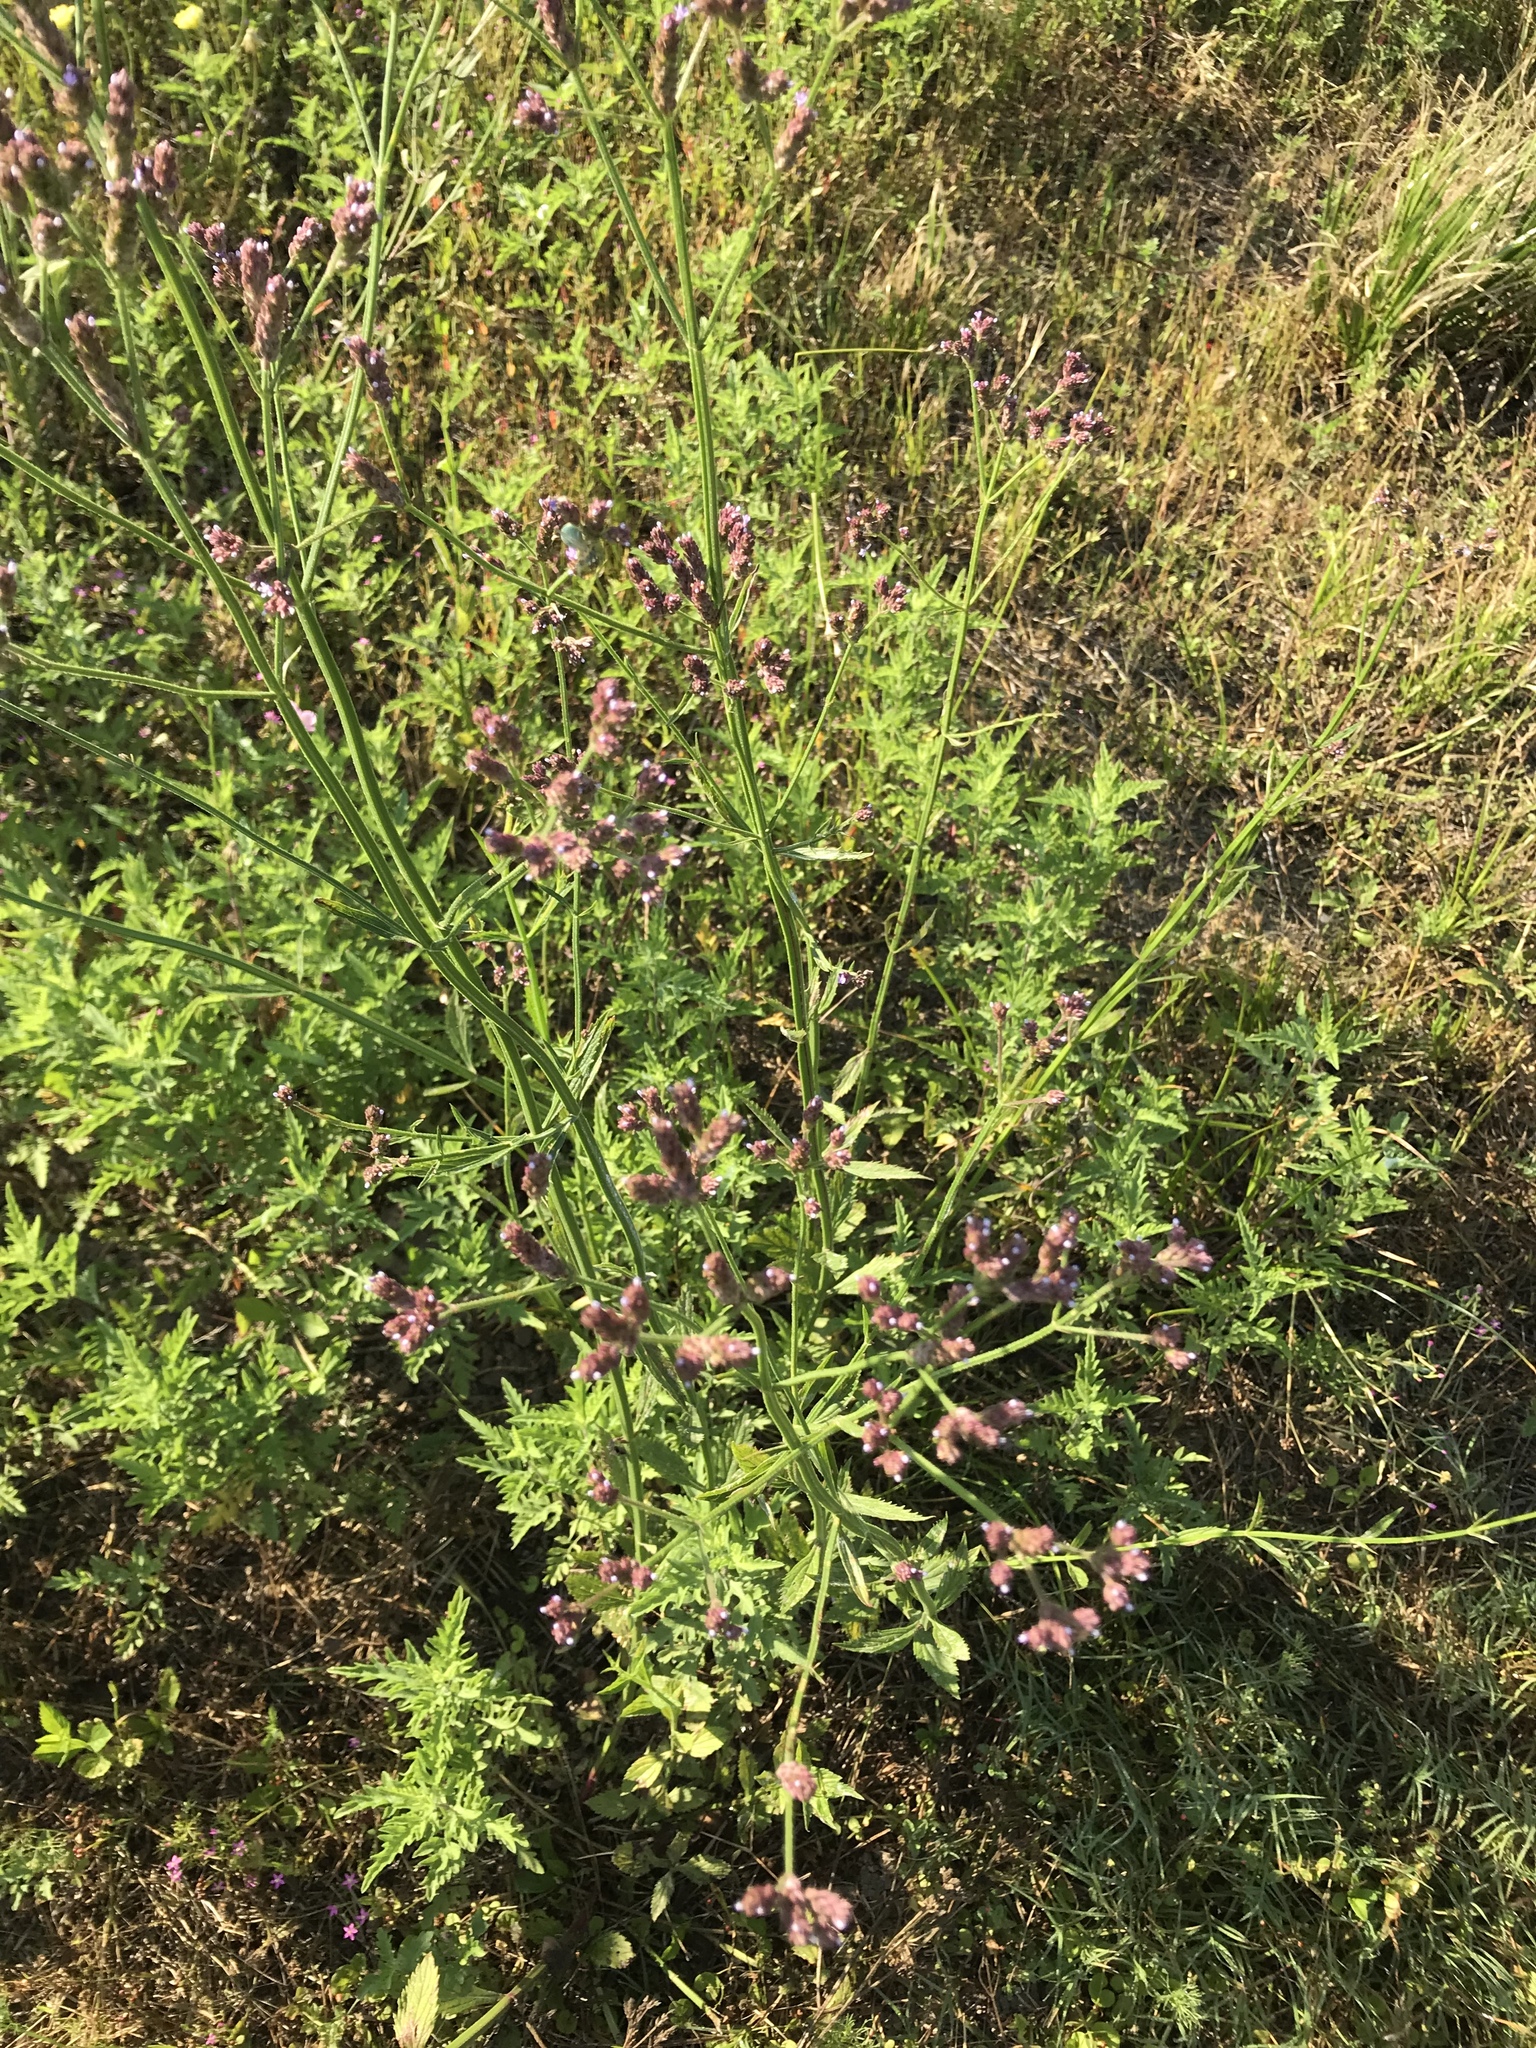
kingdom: Plantae
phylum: Tracheophyta
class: Magnoliopsida
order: Lamiales
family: Verbenaceae
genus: Verbena
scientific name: Verbena brasiliensis
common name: Brazilian vervain
